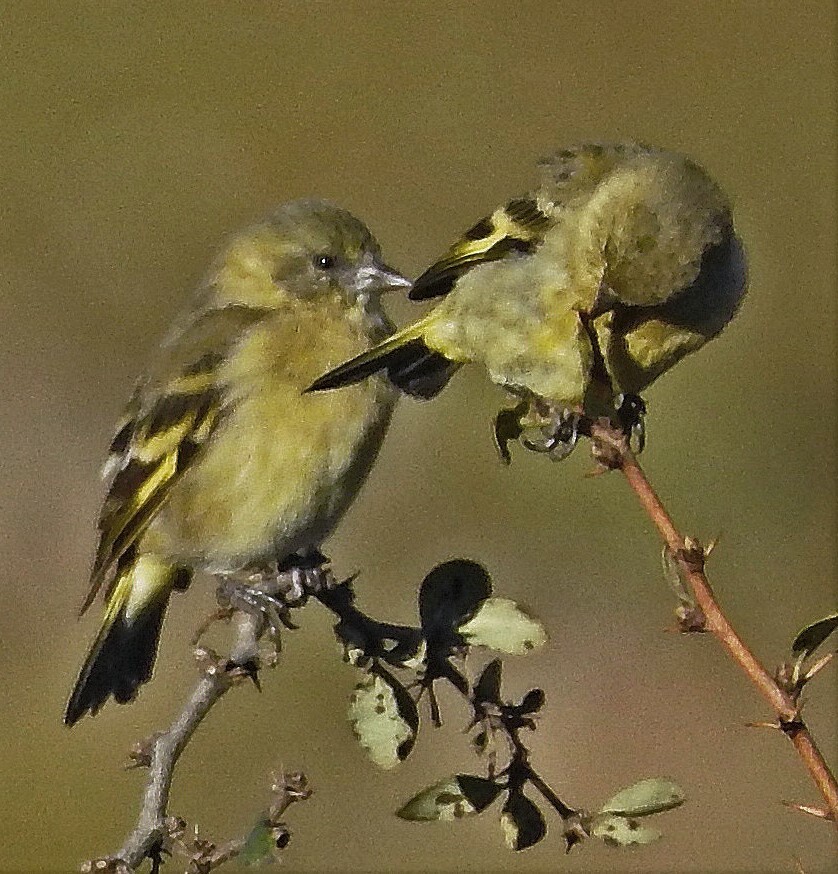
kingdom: Animalia
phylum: Chordata
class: Aves
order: Passeriformes
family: Fringillidae
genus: Spinus
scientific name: Spinus magellanicus
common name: Hooded siskin
